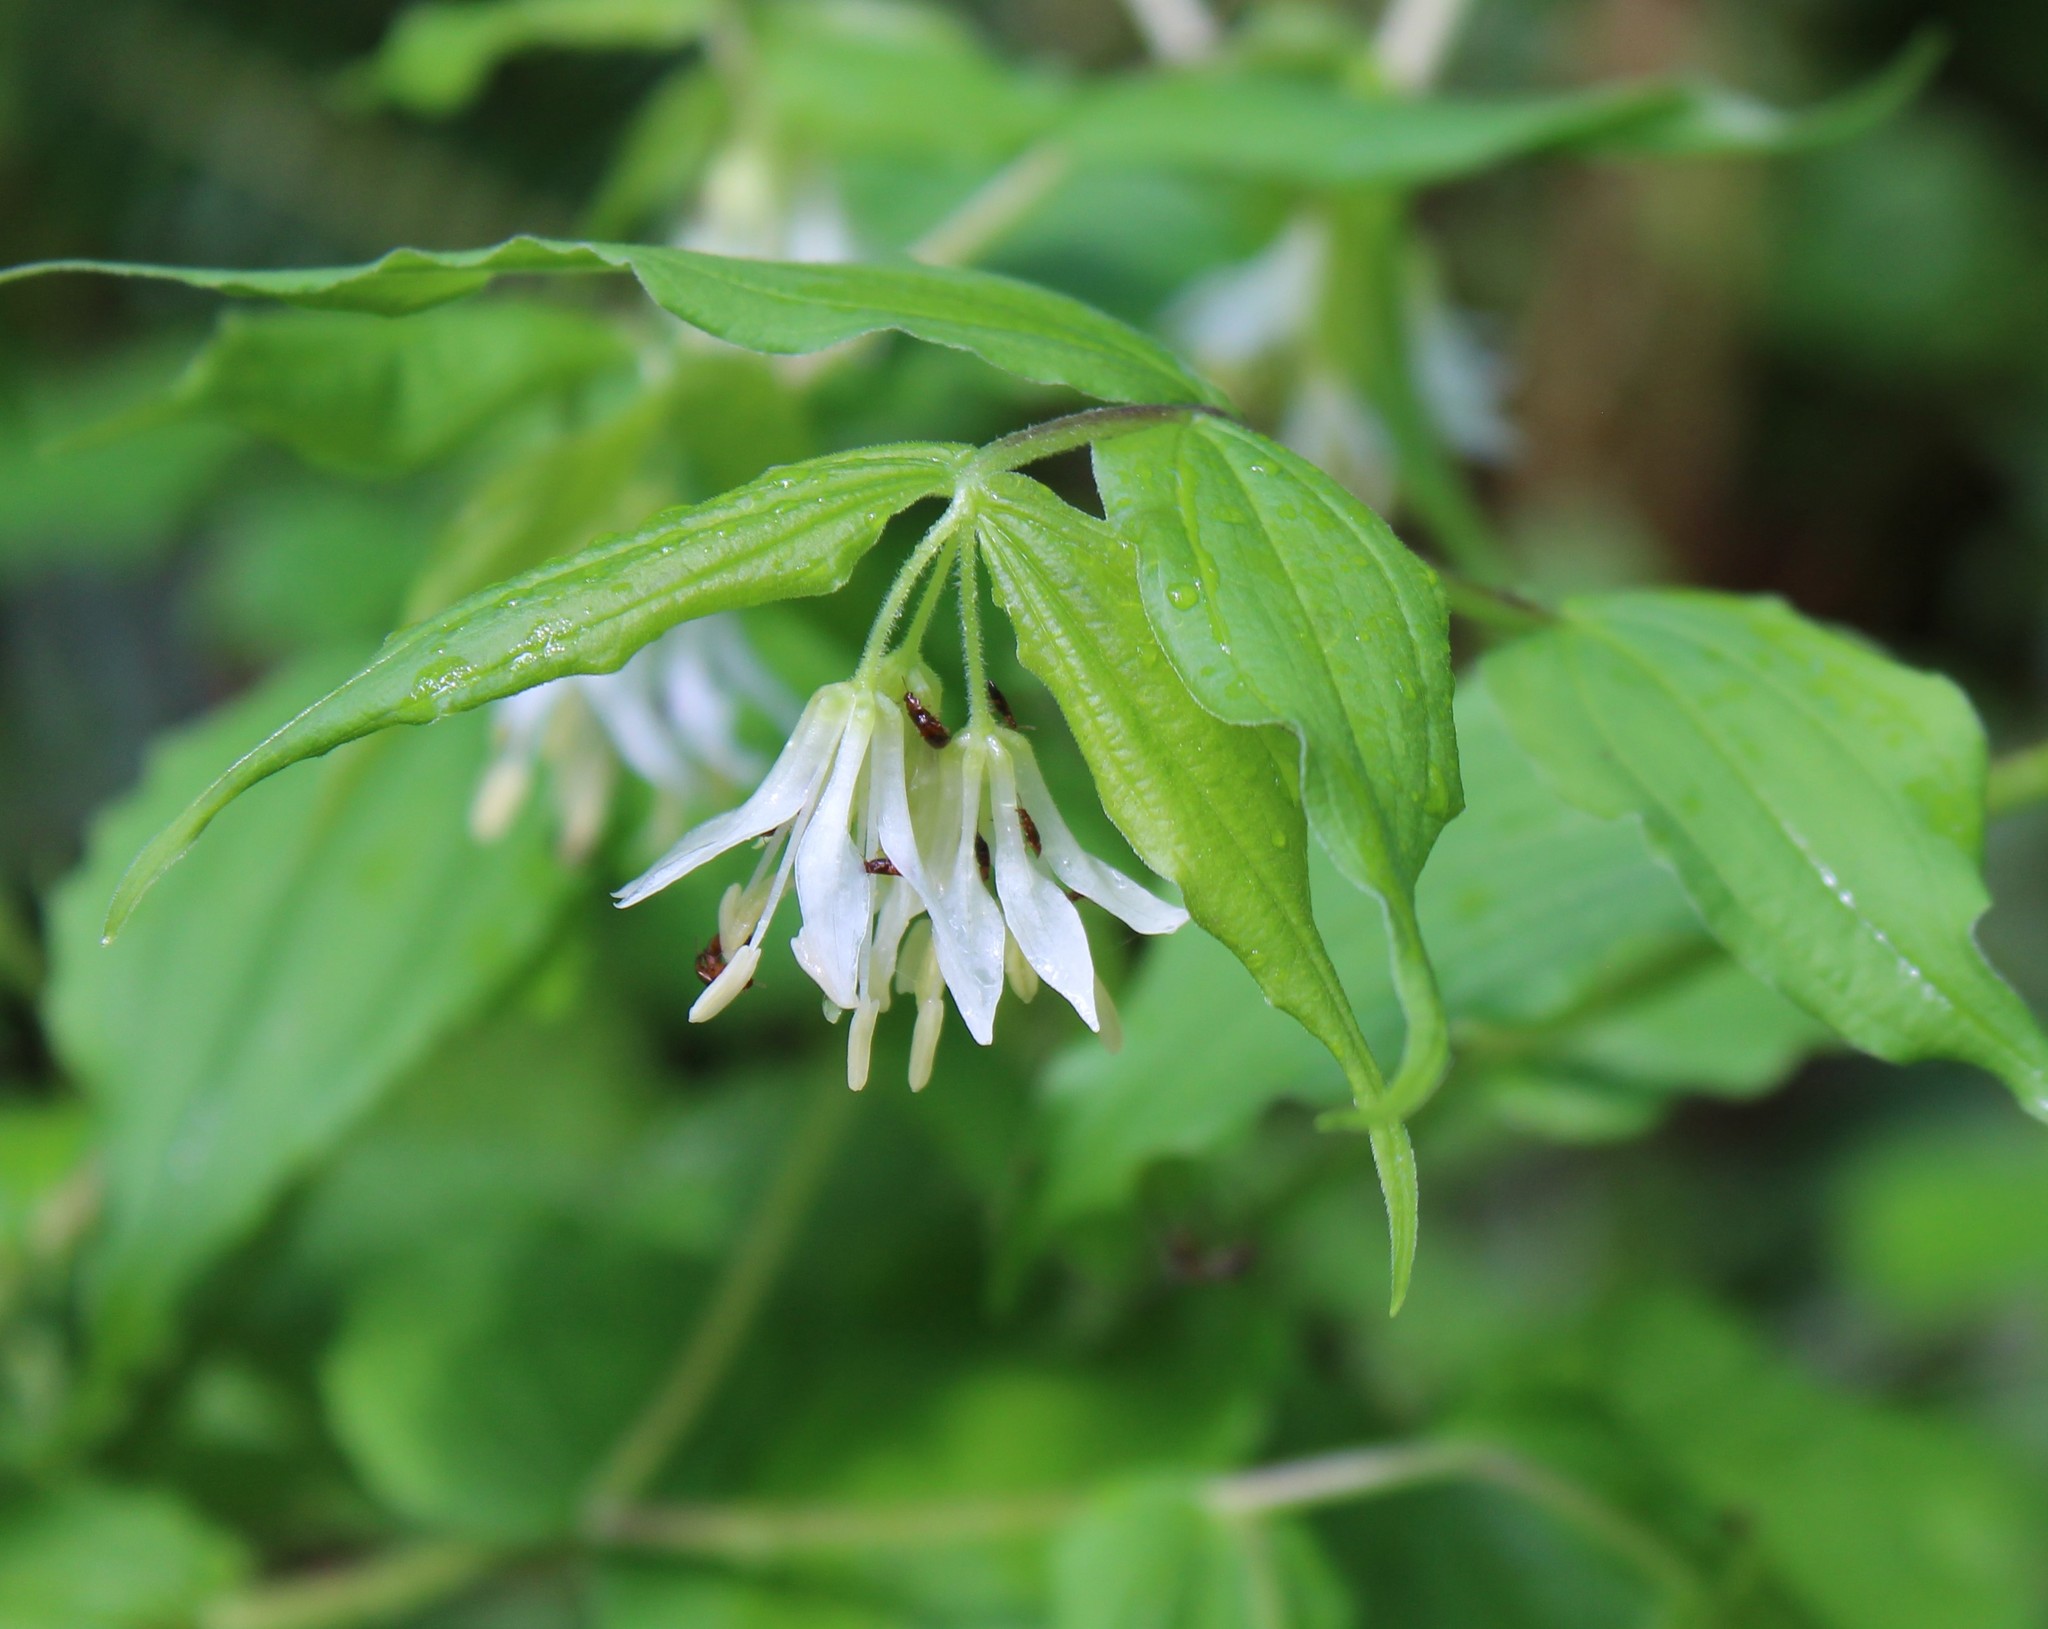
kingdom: Plantae
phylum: Tracheophyta
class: Liliopsida
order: Liliales
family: Liliaceae
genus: Prosartes
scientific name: Prosartes hookeri
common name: Fairy-bells
